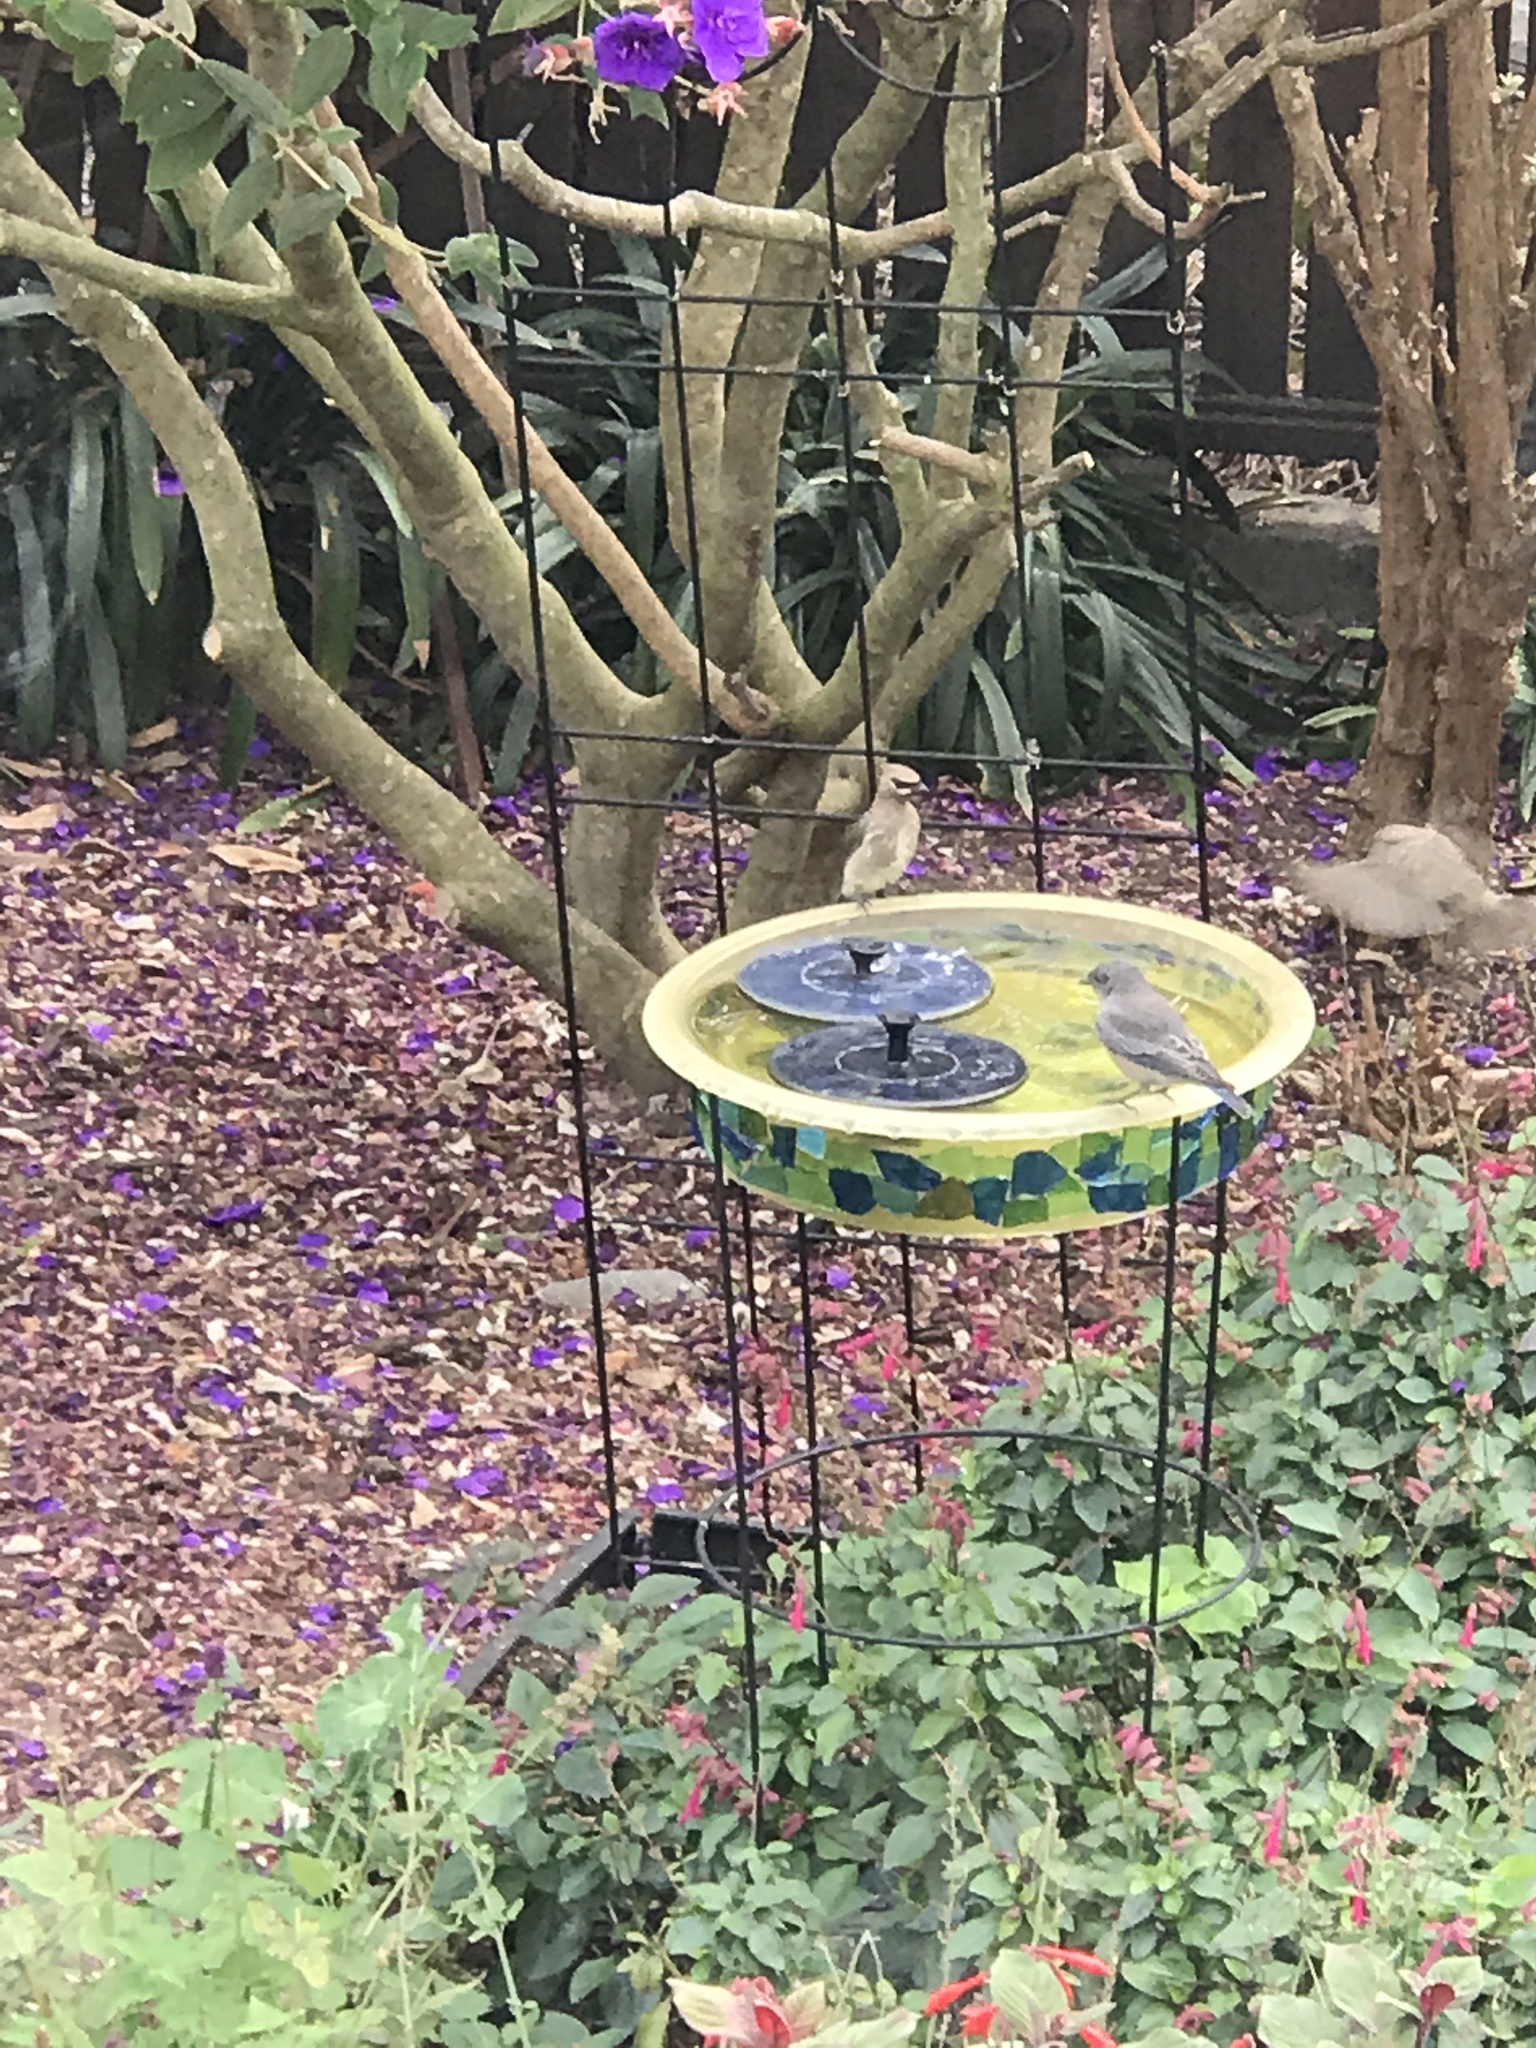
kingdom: Animalia
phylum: Chordata
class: Aves
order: Passeriformes
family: Bombycillidae
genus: Bombycilla
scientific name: Bombycilla cedrorum
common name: Cedar waxwing
